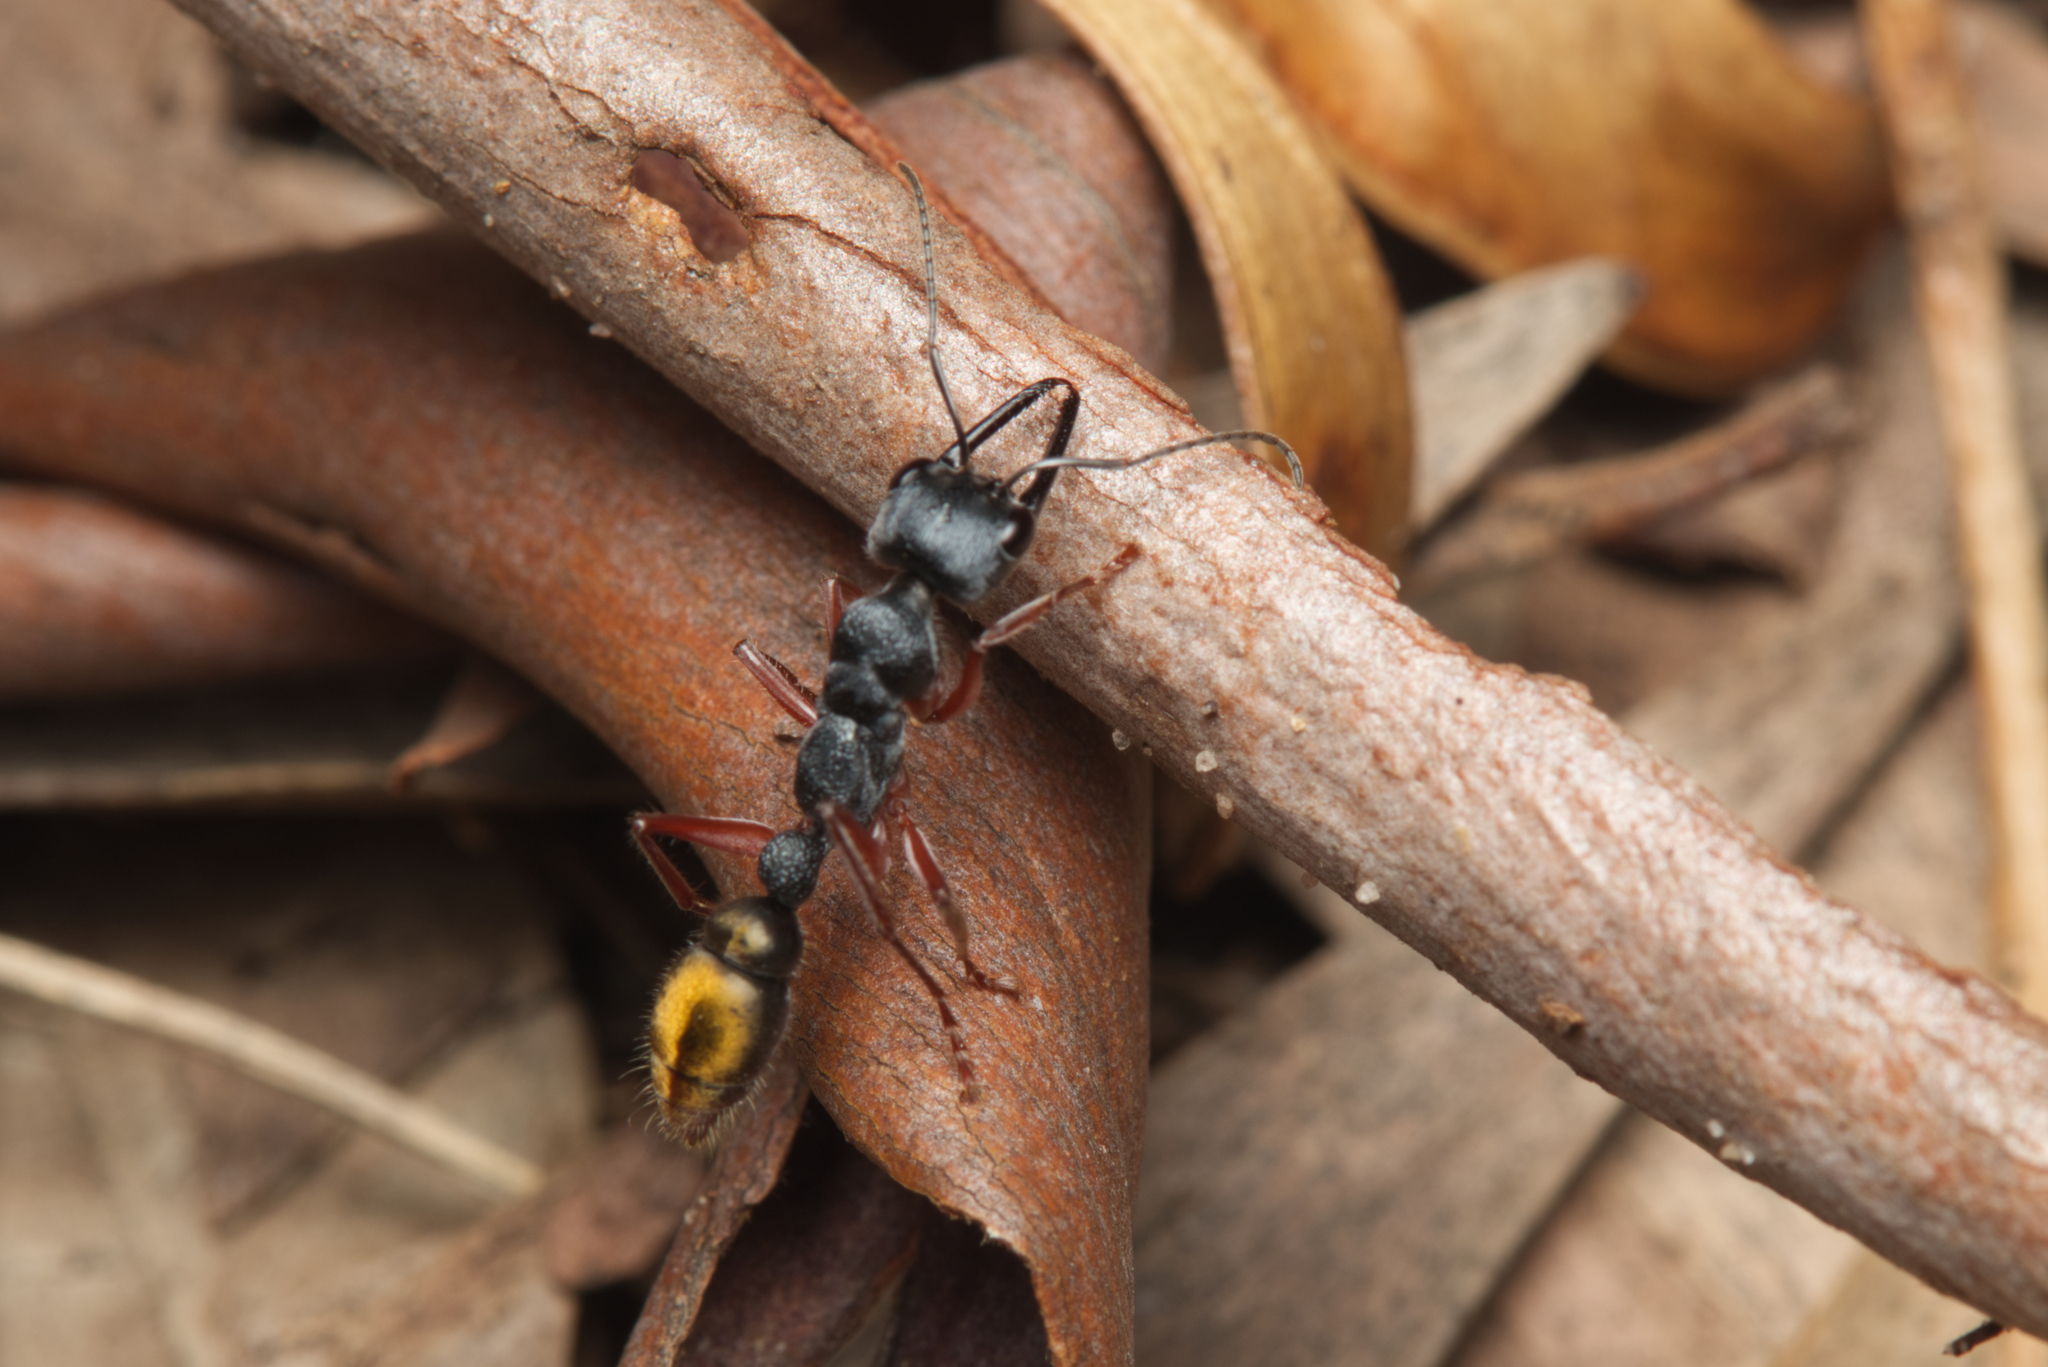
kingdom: Animalia
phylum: Arthropoda
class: Insecta
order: Hymenoptera
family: Formicidae
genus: Myrmecia
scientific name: Myrmecia fulviculis
